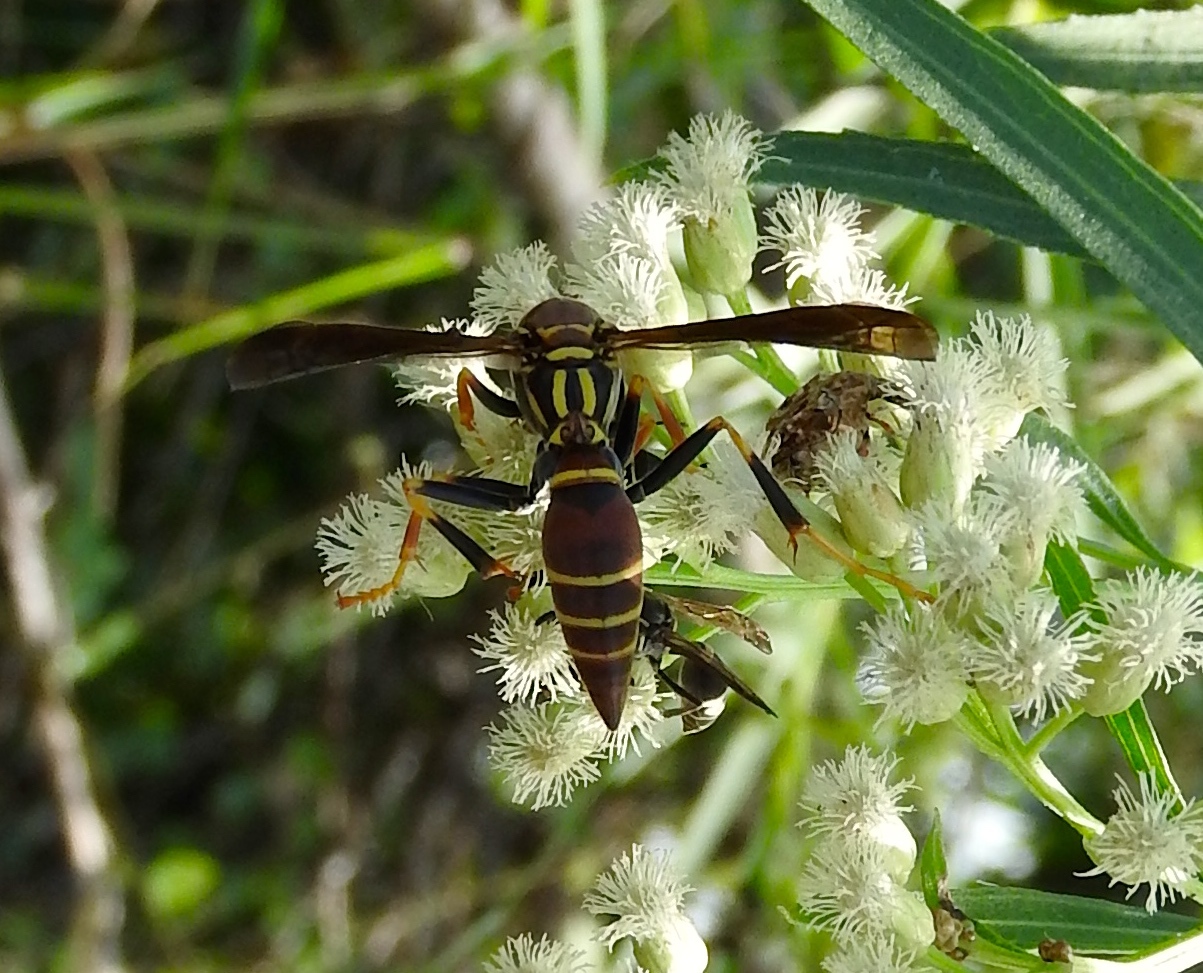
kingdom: Animalia
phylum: Arthropoda
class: Insecta
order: Hymenoptera
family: Eumenidae
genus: Polistes
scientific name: Polistes instabilis
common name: Unstable paper wasp
